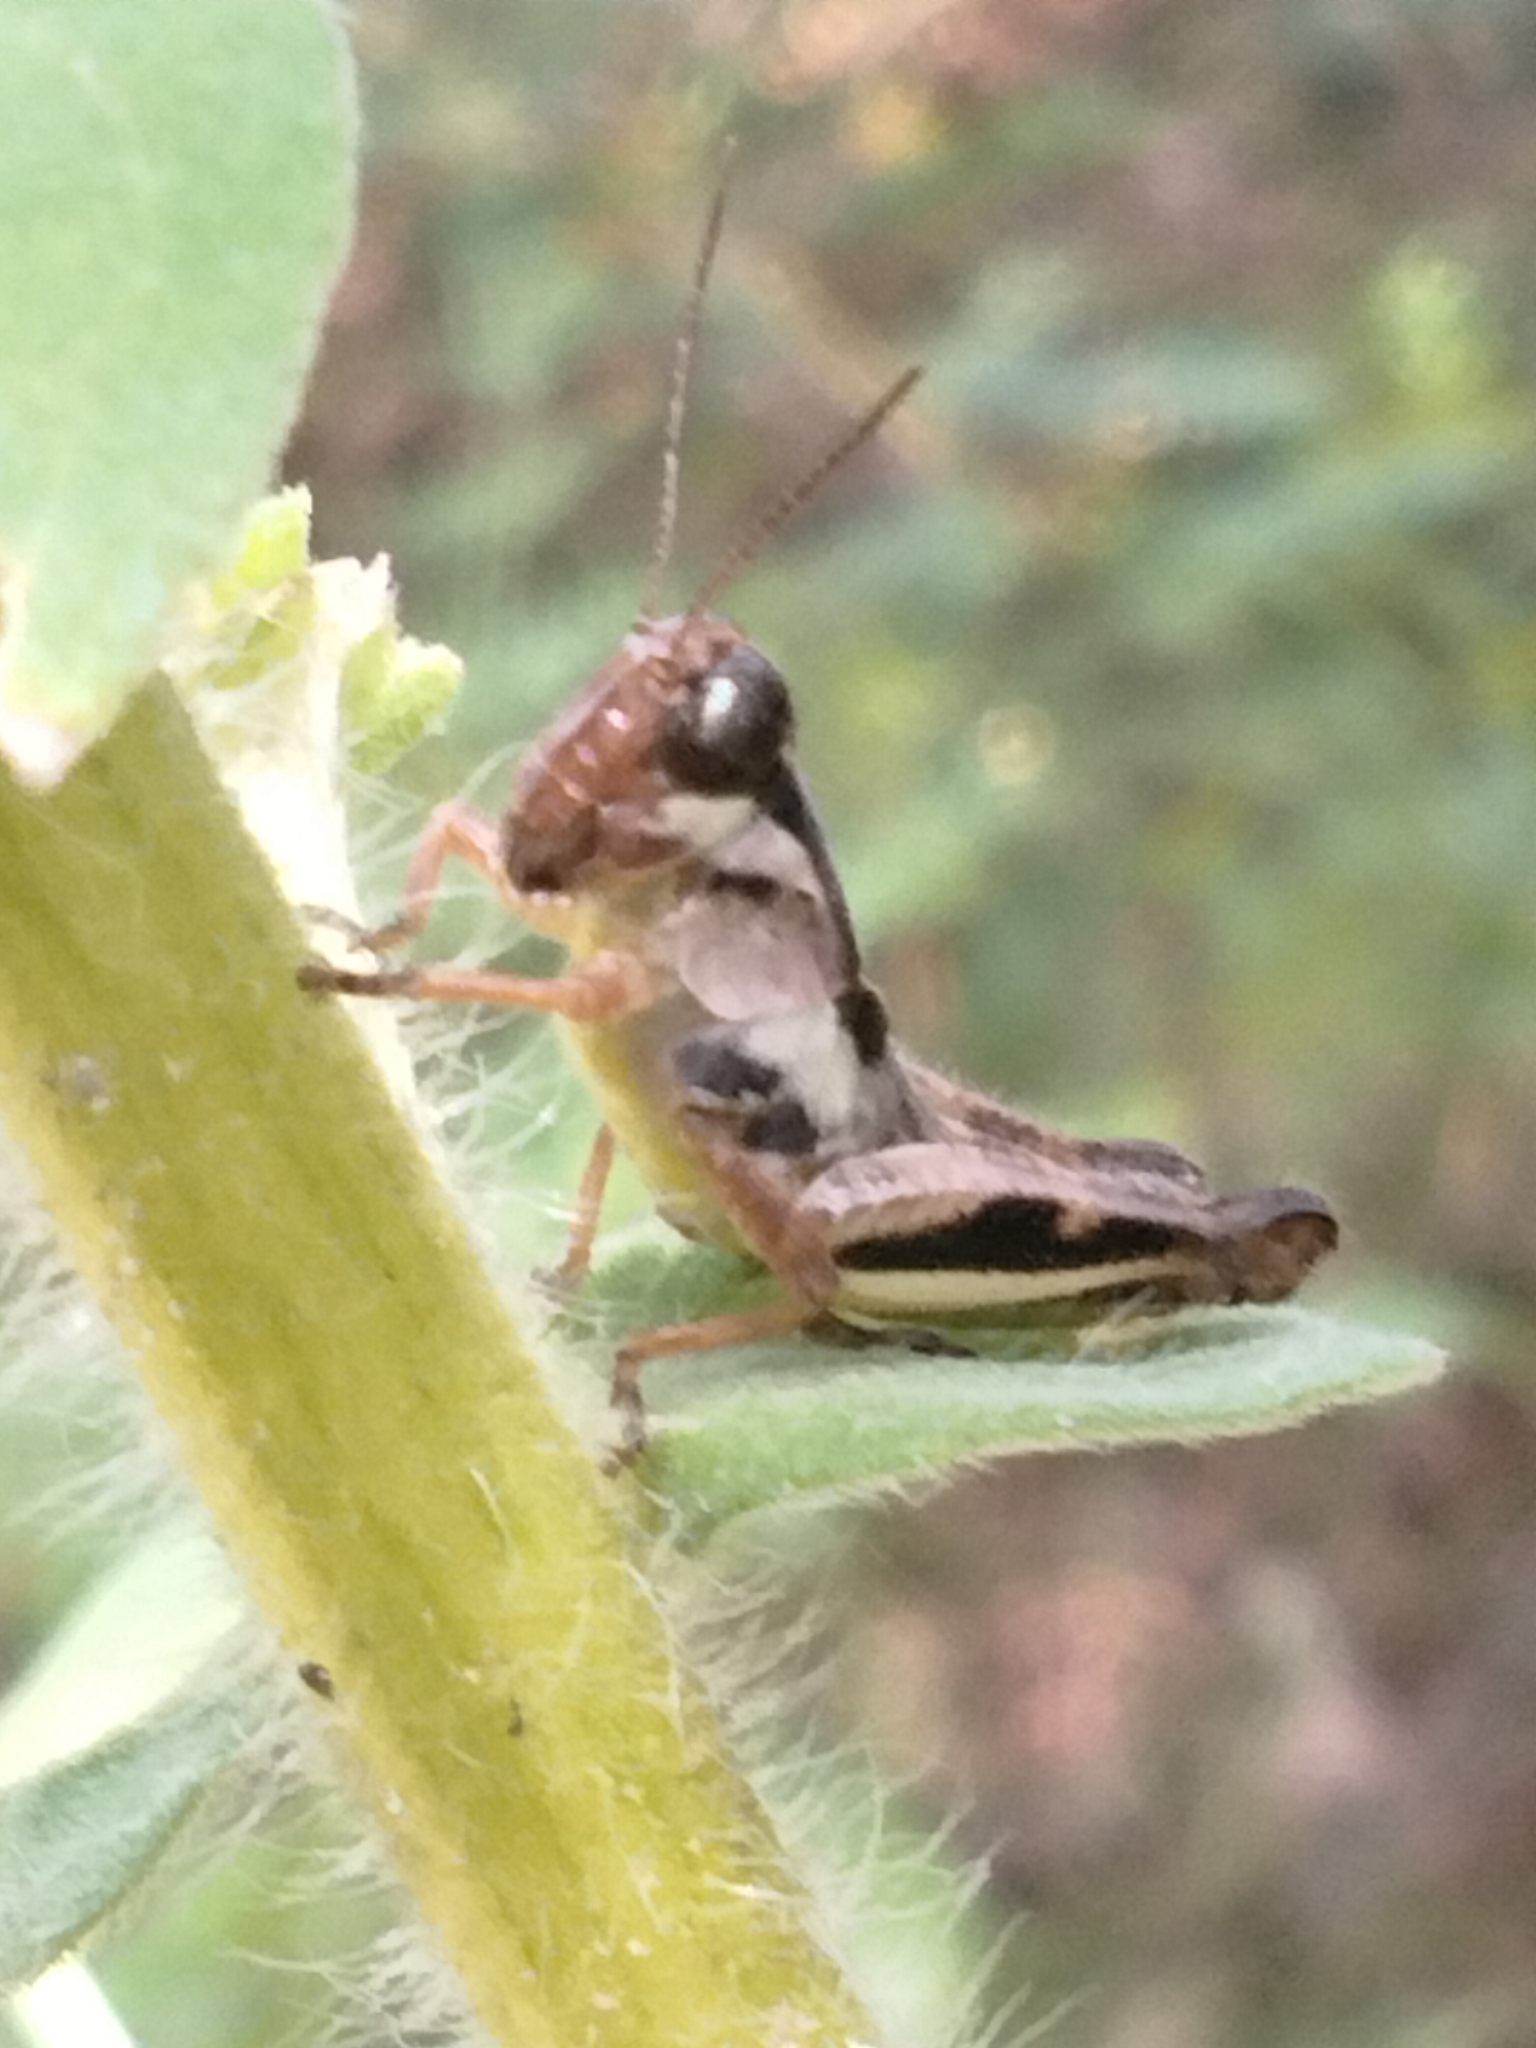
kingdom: Animalia
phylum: Arthropoda
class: Insecta
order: Orthoptera
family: Acrididae
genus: Melanoplus
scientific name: Melanoplus keeleri
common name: Keeler grasshopper
